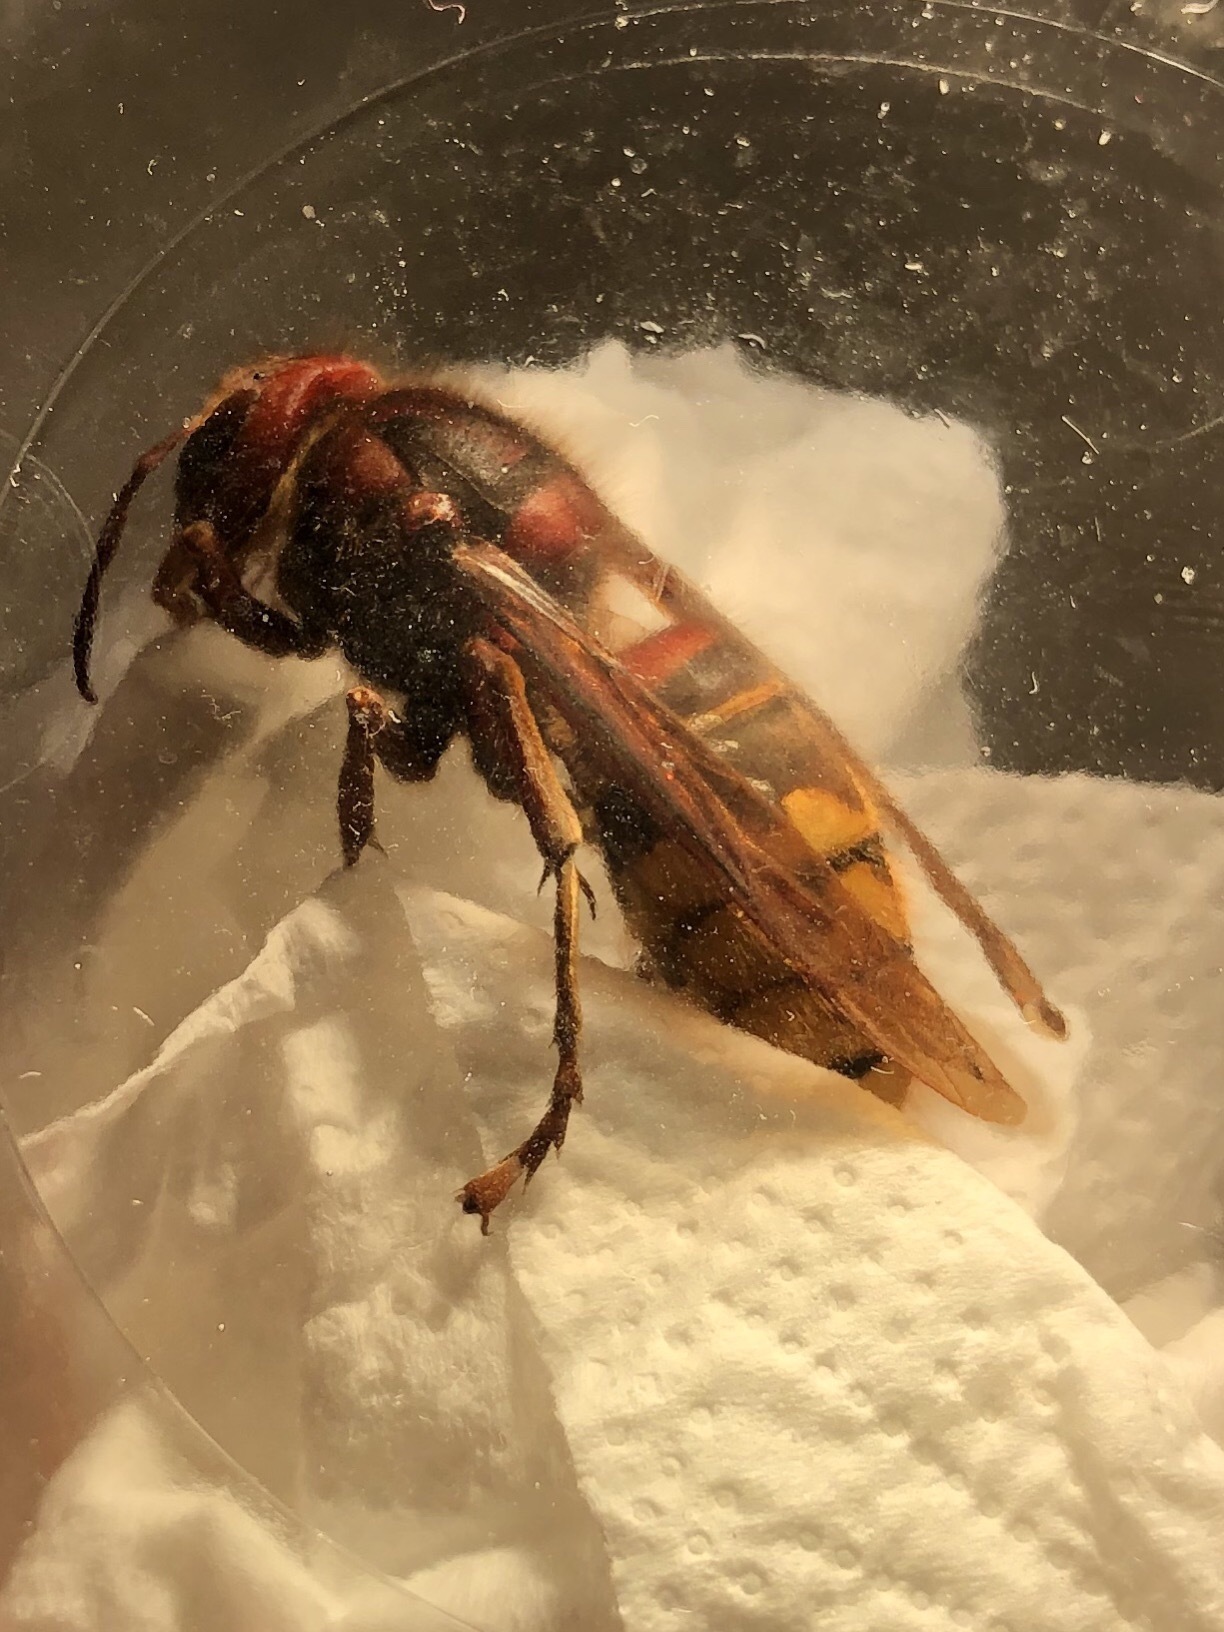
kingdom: Animalia
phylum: Arthropoda
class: Insecta
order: Hymenoptera
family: Vespidae
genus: Vespa
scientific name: Vespa crabro
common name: Hornet
